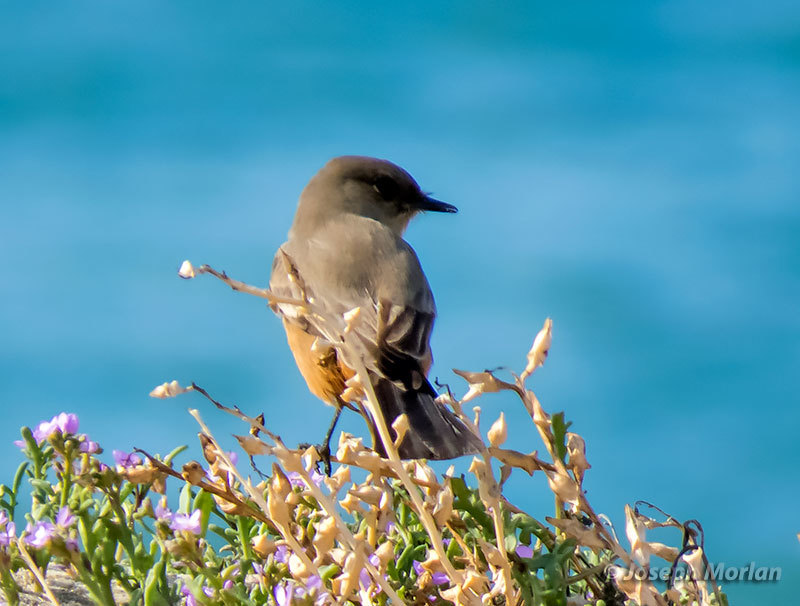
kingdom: Animalia
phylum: Chordata
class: Aves
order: Passeriformes
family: Tyrannidae
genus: Sayornis
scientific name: Sayornis saya
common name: Say's phoebe
